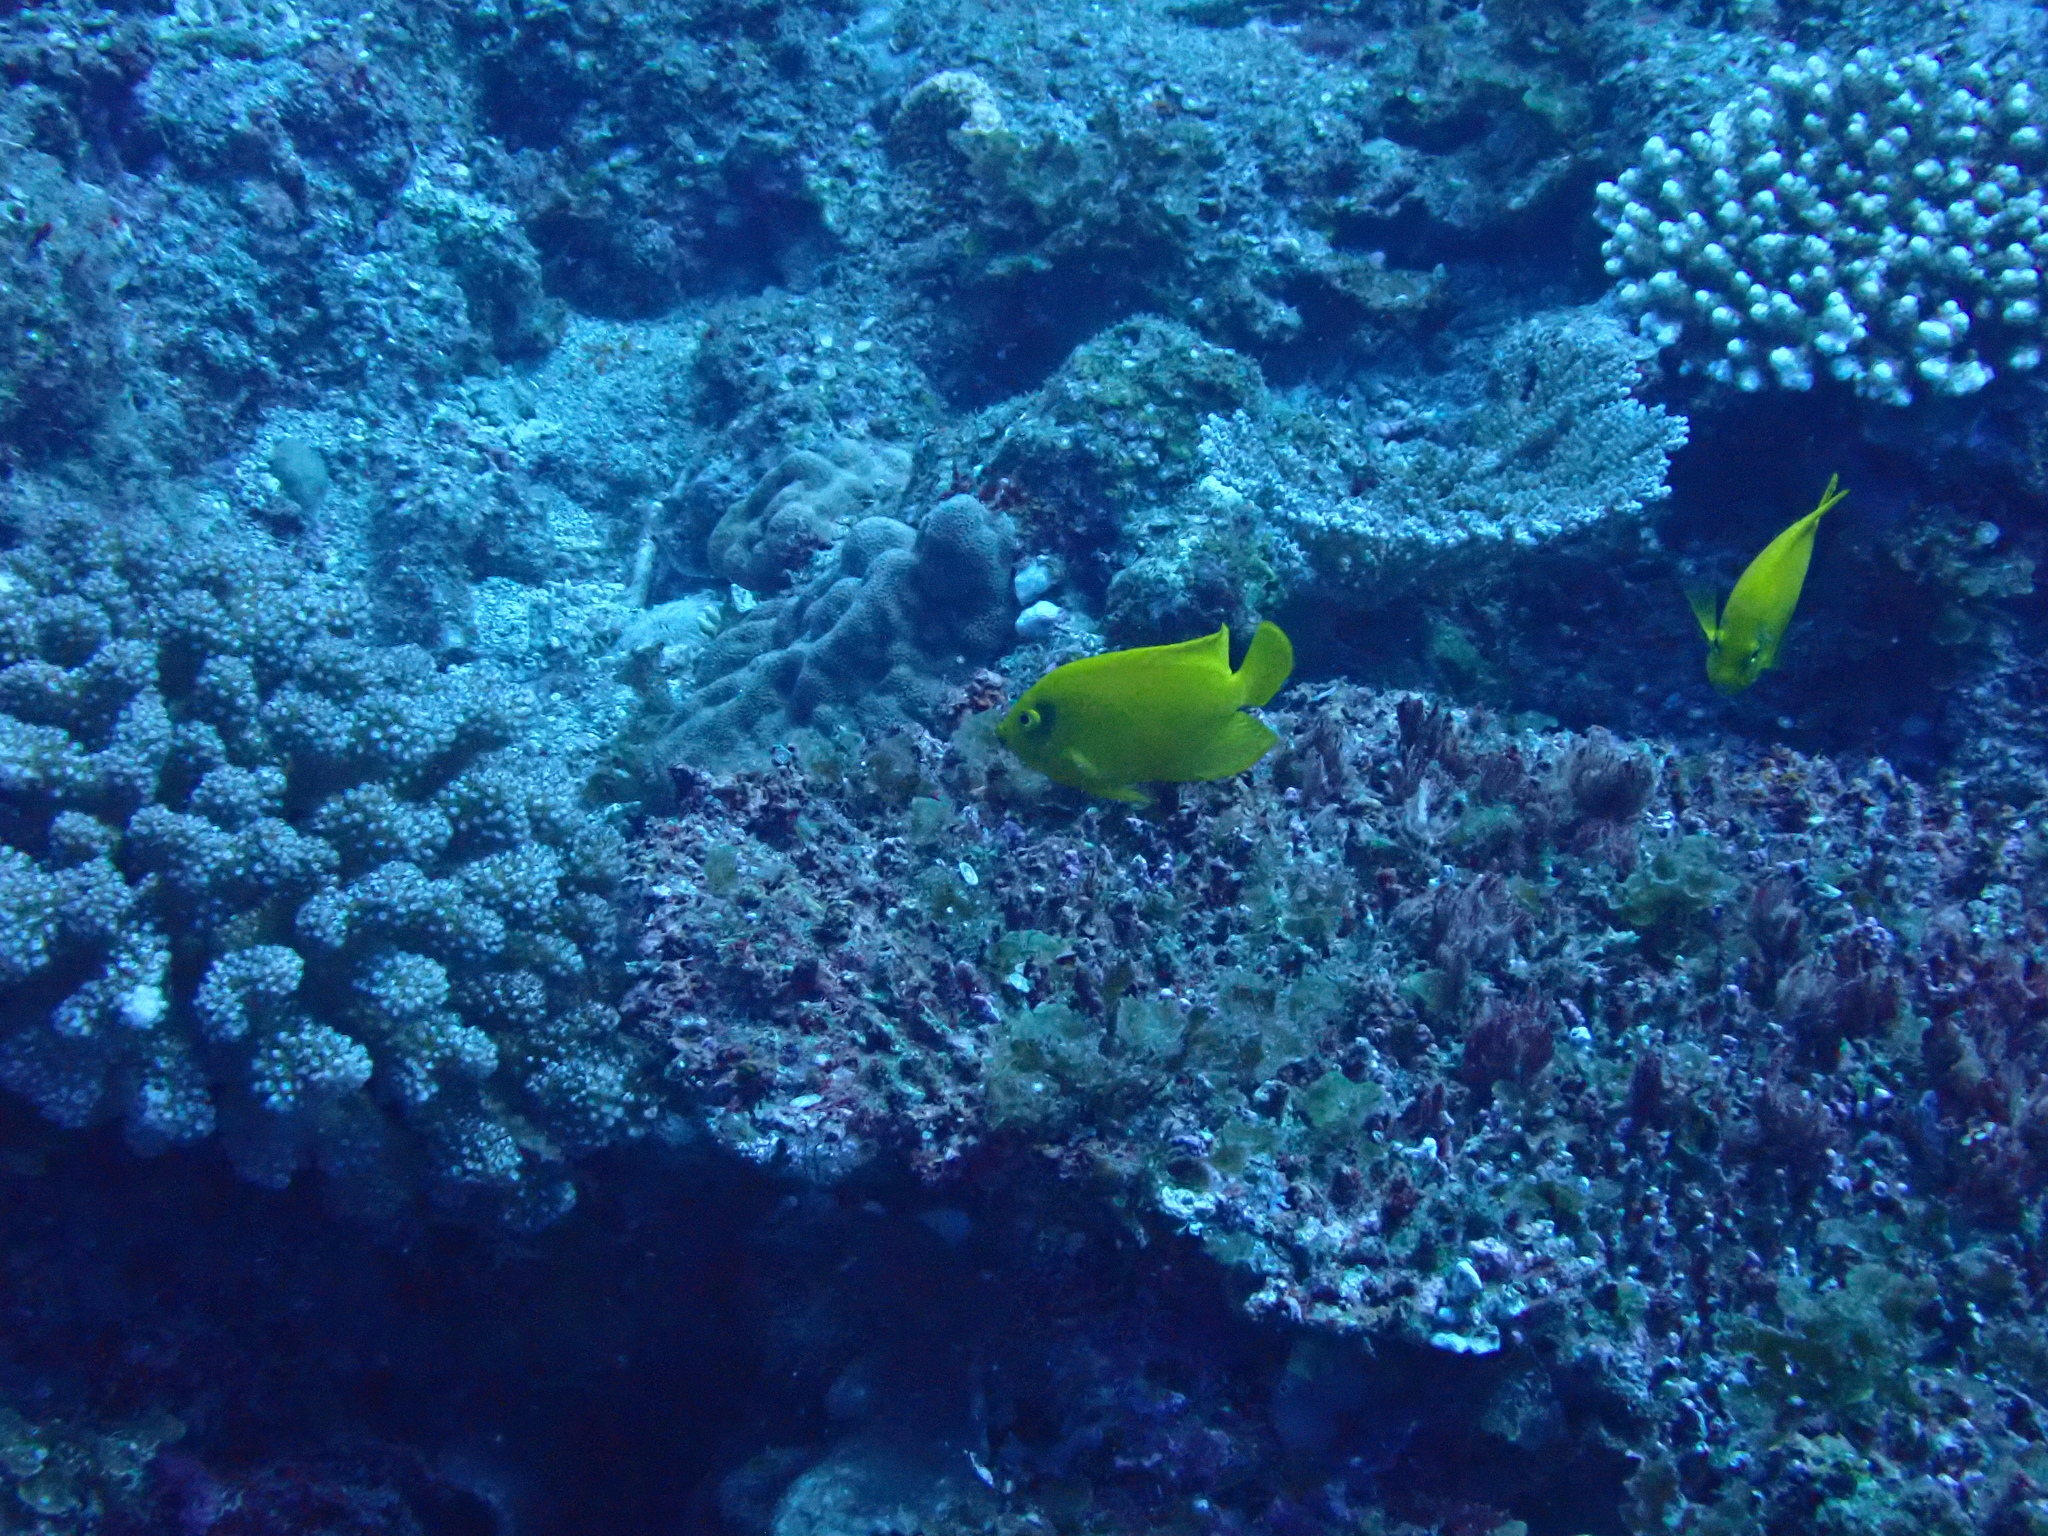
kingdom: Animalia
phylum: Chordata
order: Perciformes
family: Pomacanthidae
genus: Centropyge
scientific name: Centropyge heraldi
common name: Herald's angelfish
